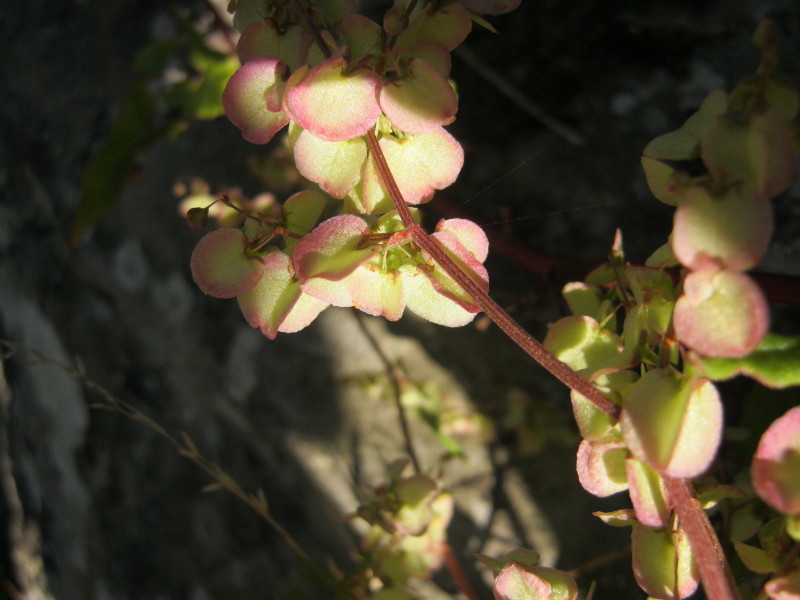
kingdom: Plantae
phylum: Tracheophyta
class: Magnoliopsida
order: Caryophyllales
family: Polygonaceae
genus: Rumex
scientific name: Rumex sagittatus
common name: Climbing dock
